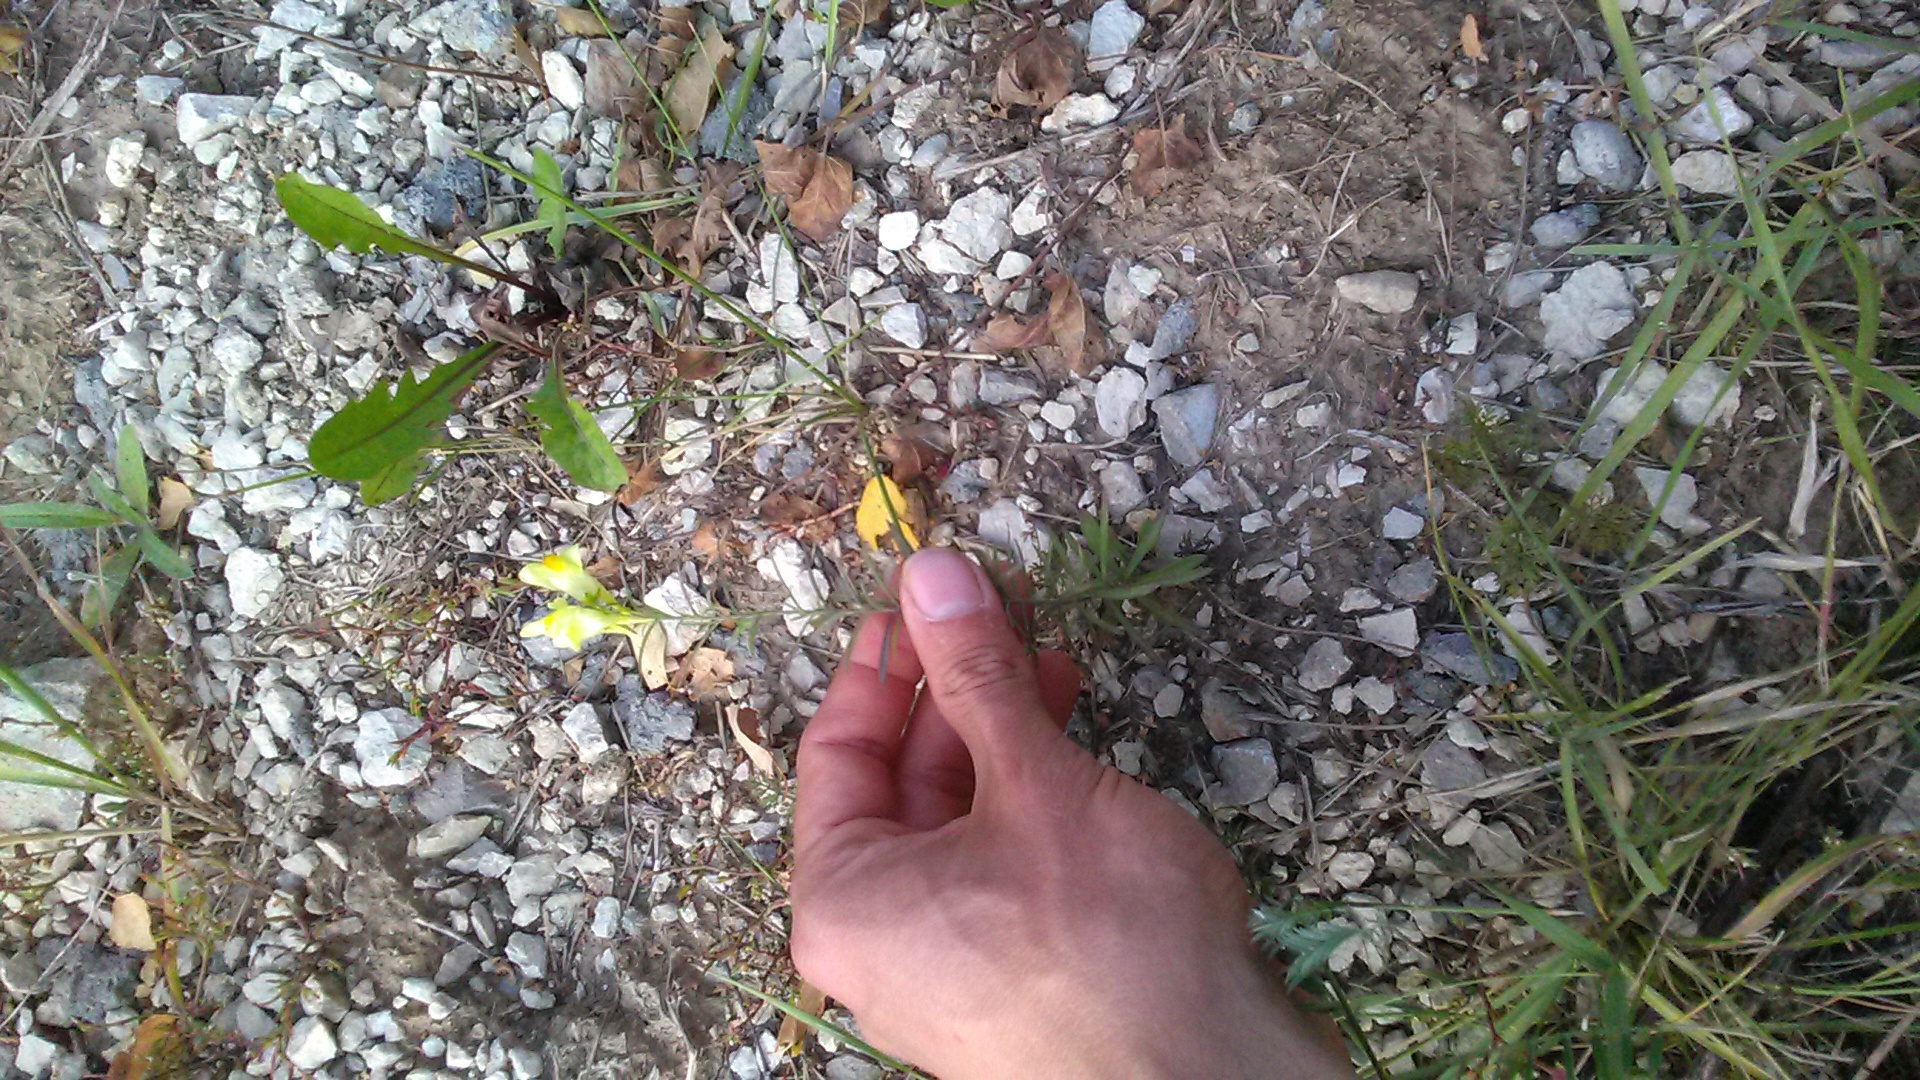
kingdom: Plantae
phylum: Tracheophyta
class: Magnoliopsida
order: Lamiales
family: Plantaginaceae
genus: Linaria
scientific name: Linaria vulgaris
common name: Butter and eggs
